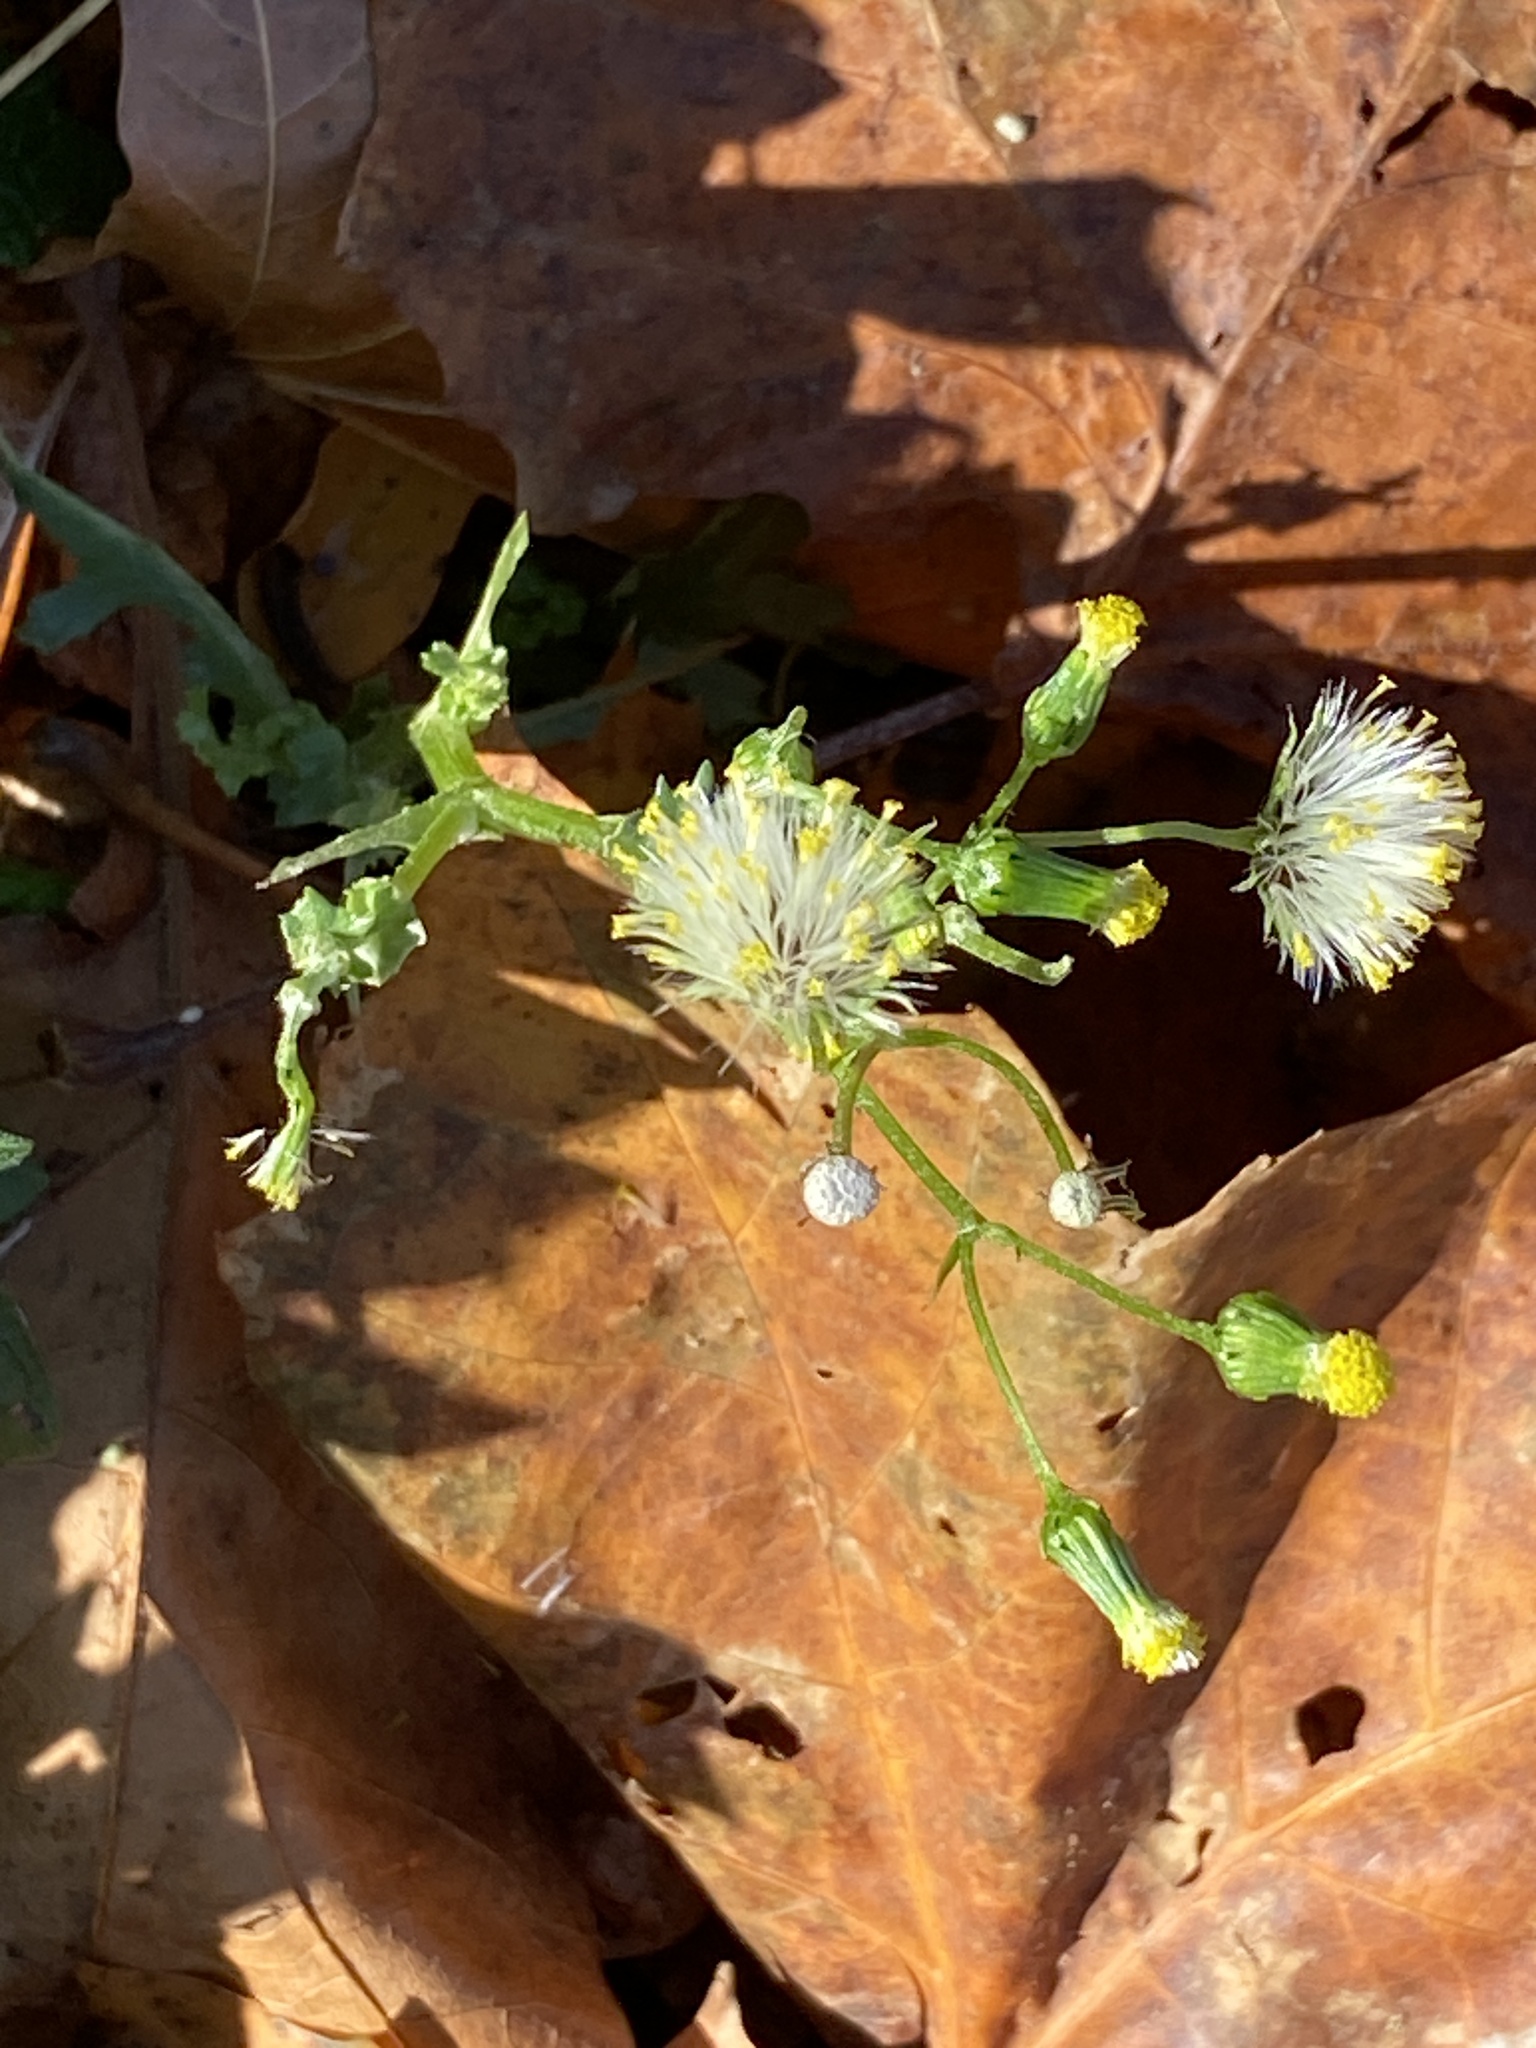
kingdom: Plantae
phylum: Tracheophyta
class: Magnoliopsida
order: Asterales
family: Asteraceae
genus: Senecio
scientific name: Senecio vulgaris
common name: Old-man-in-the-spring
